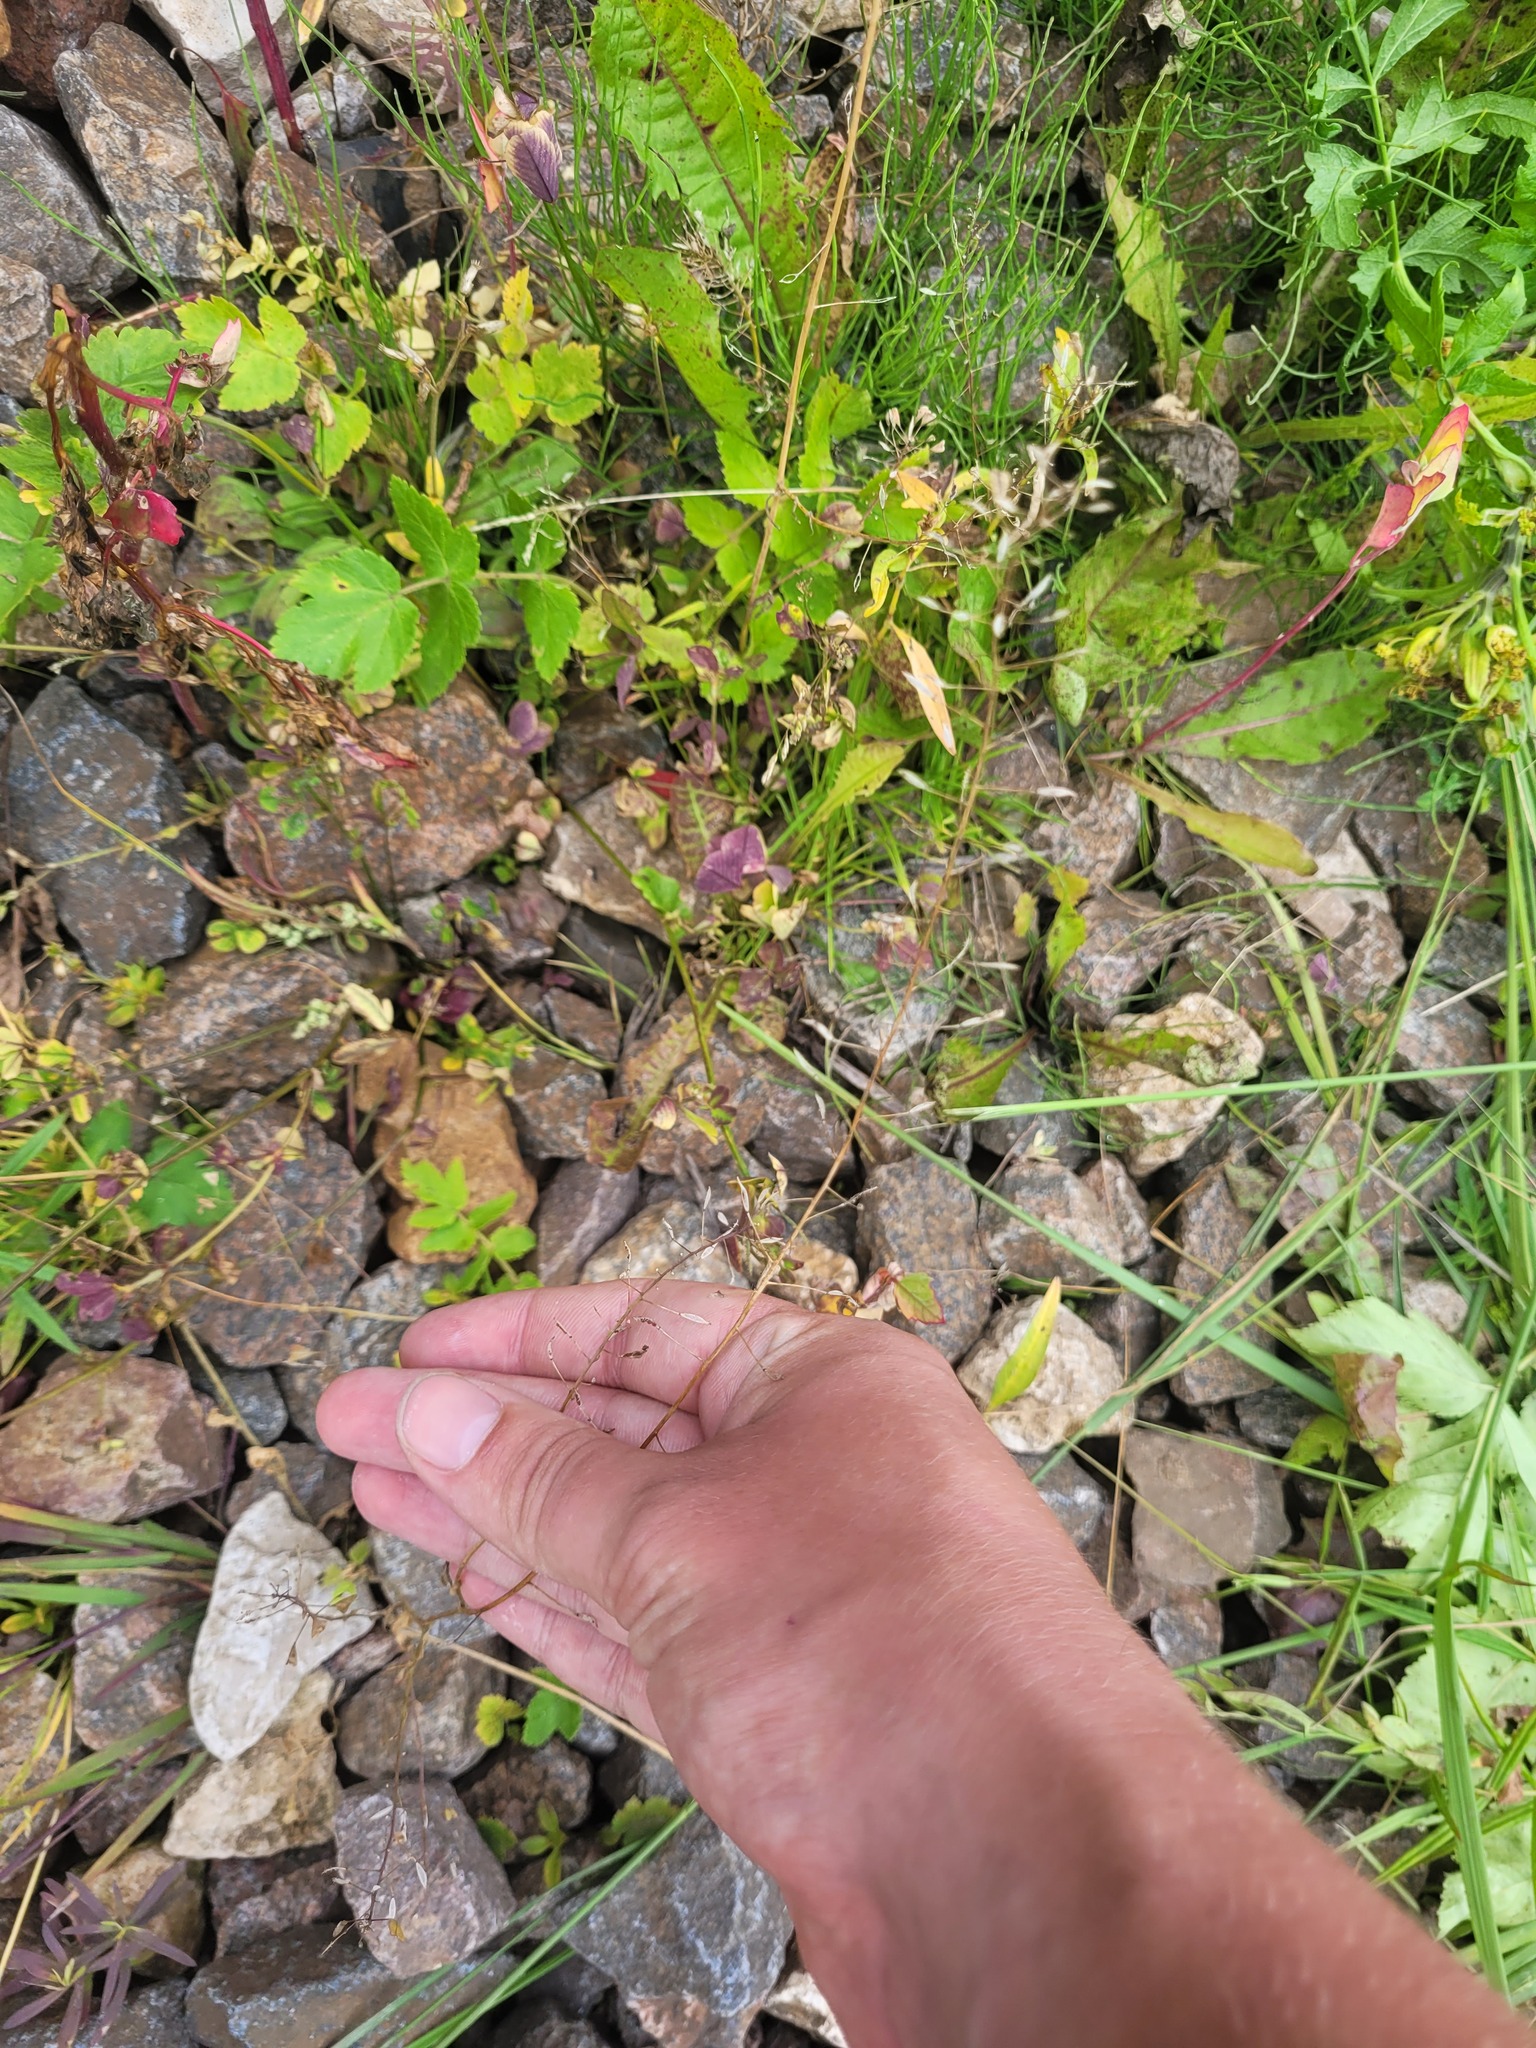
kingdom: Plantae
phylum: Tracheophyta
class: Magnoliopsida
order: Brassicales
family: Brassicaceae
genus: Capsella
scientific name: Capsella bursa-pastoris
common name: Shepherd's purse
